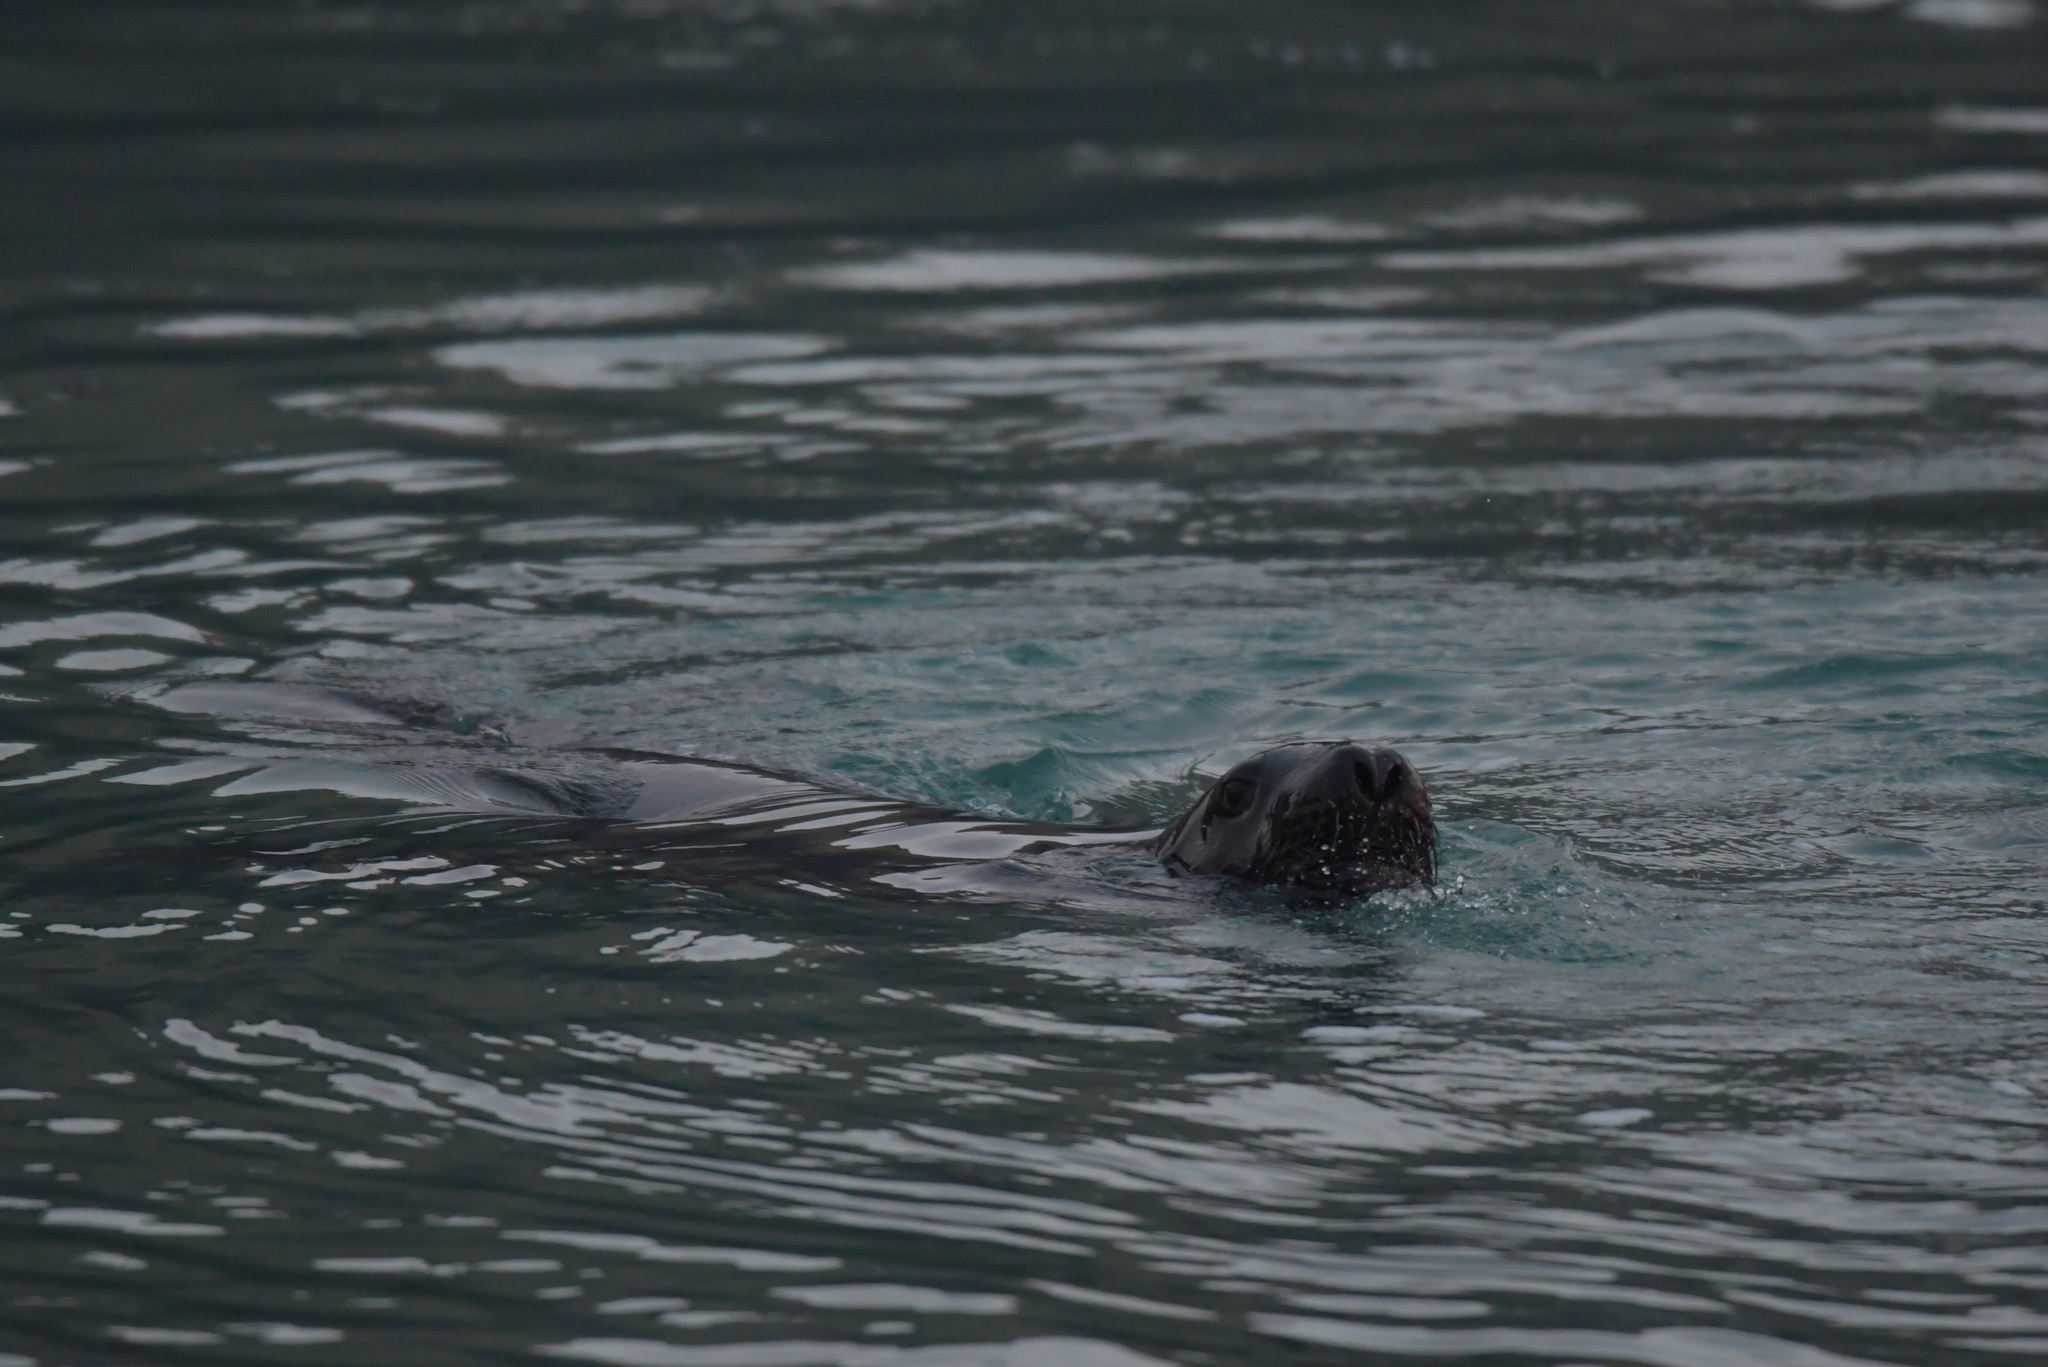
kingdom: Animalia
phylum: Chordata
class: Mammalia
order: Carnivora
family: Otariidae
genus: Phocarctos
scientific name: Phocarctos hookeri
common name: New zealand sea lion
